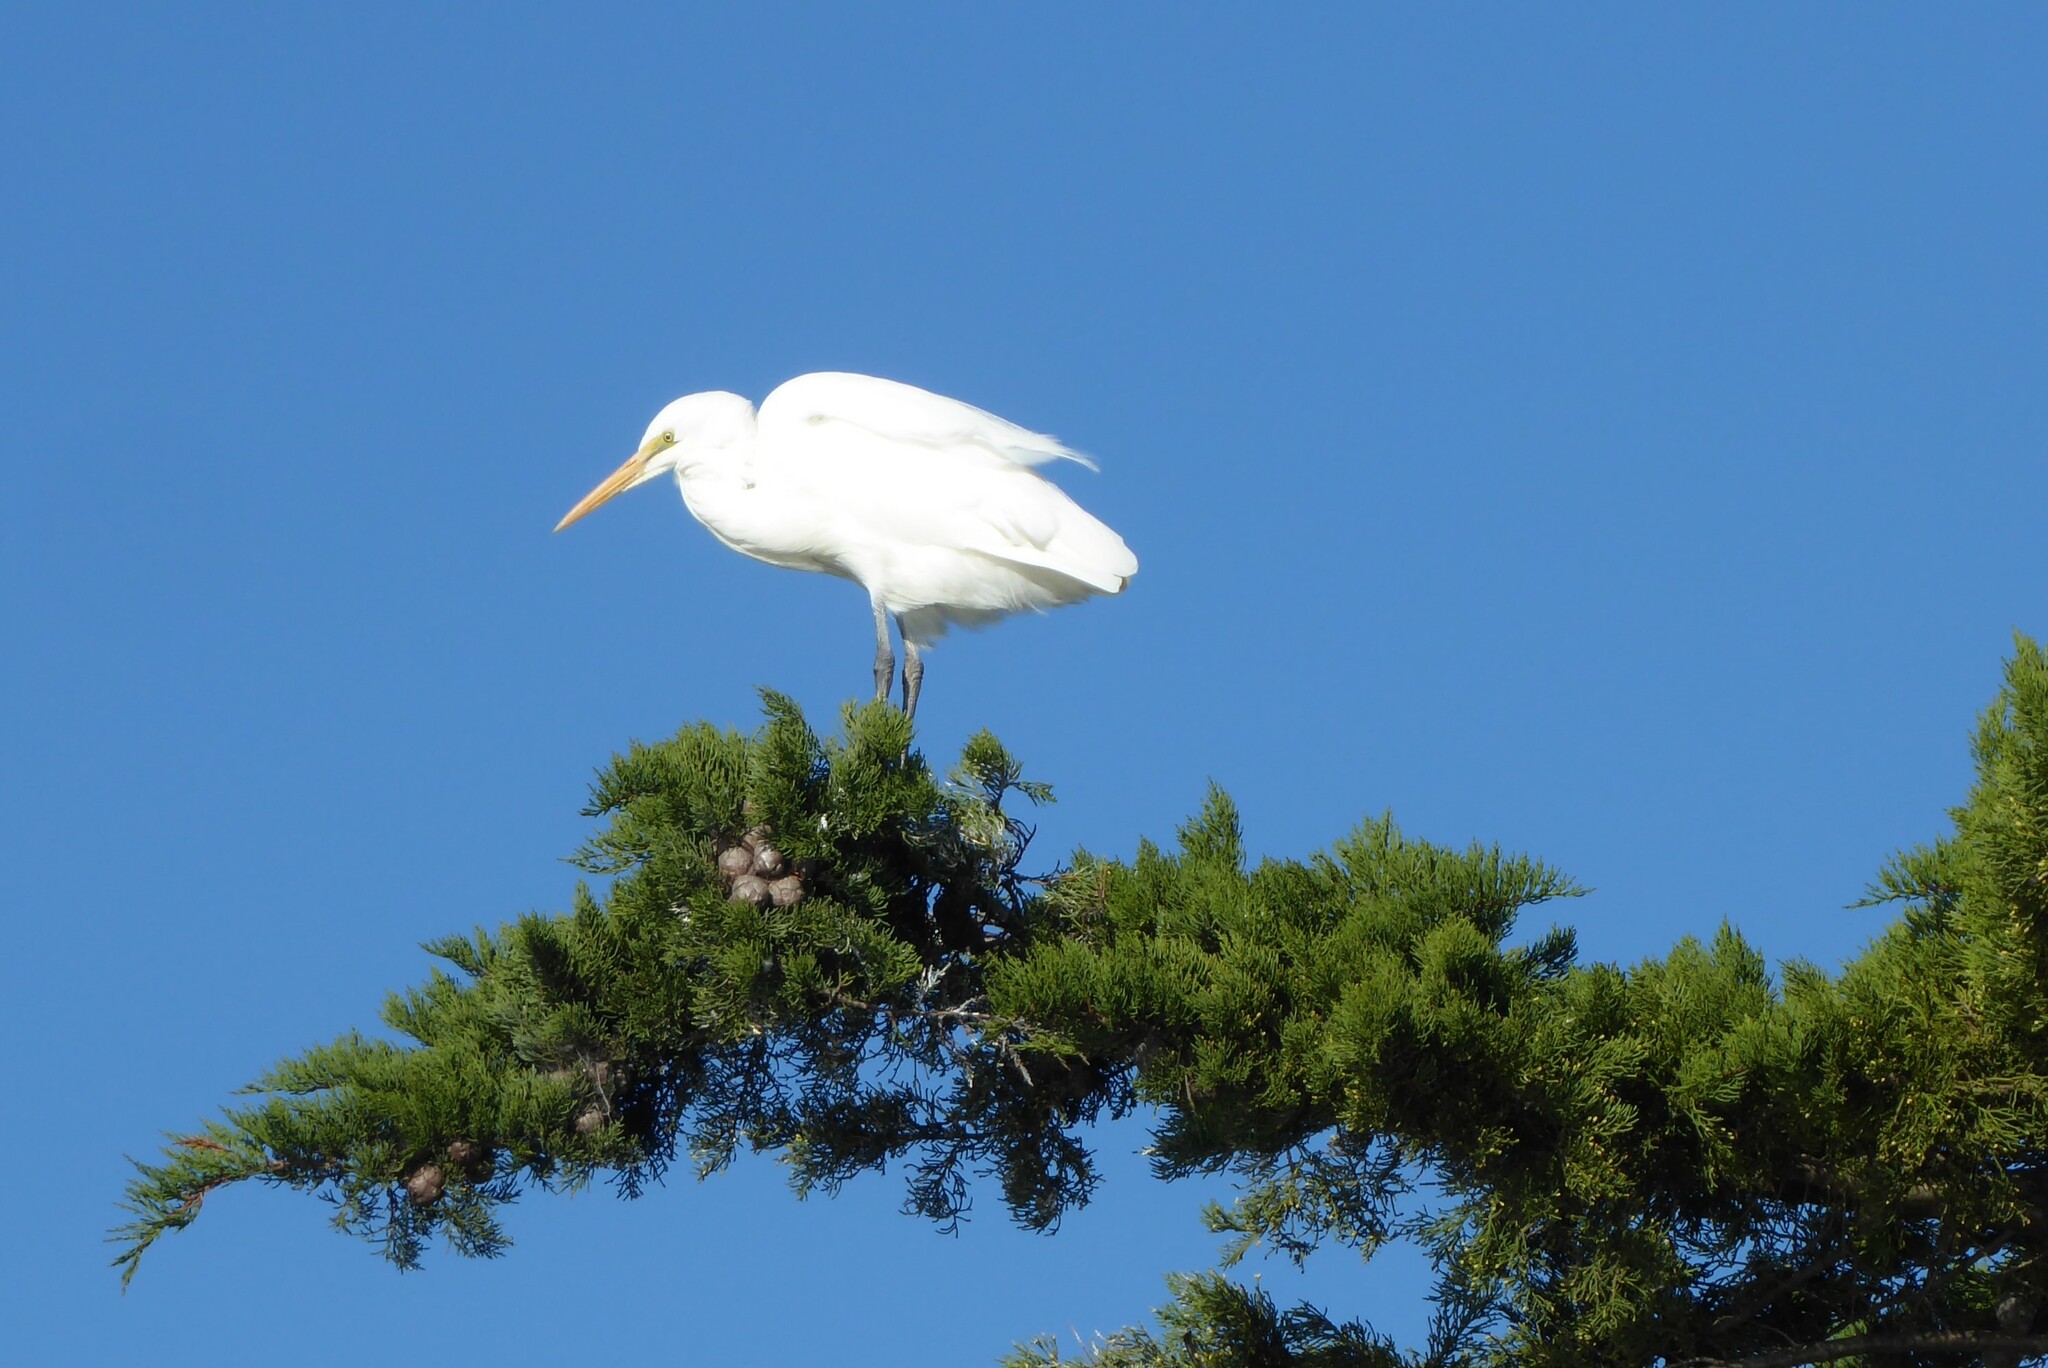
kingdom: Animalia
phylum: Chordata
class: Aves
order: Pelecaniformes
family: Ardeidae
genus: Ardea
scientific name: Ardea modesta
